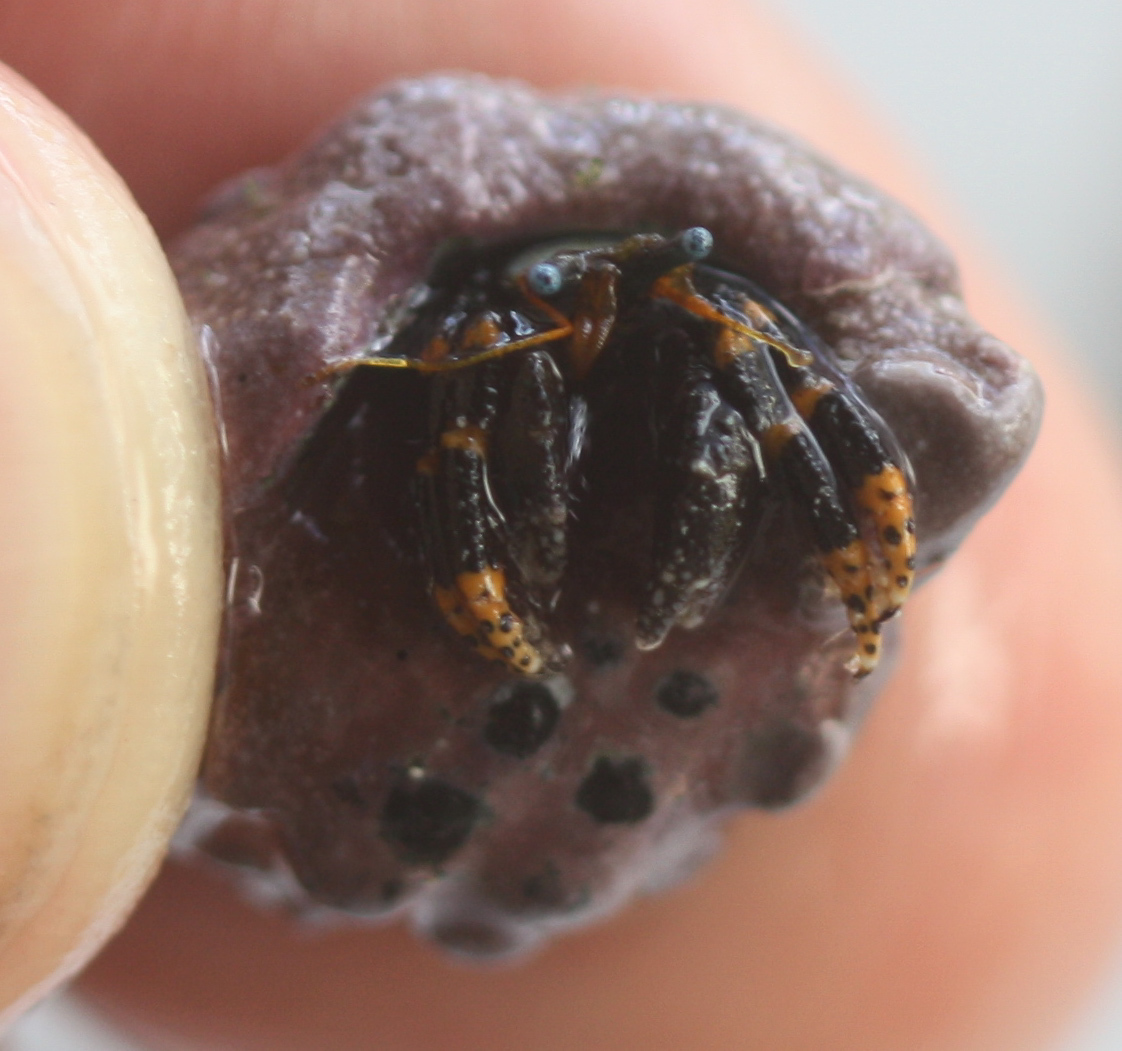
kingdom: Animalia
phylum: Arthropoda
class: Malacostraca
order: Decapoda
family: Diogenidae
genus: Calcinus
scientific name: Calcinus pictus
